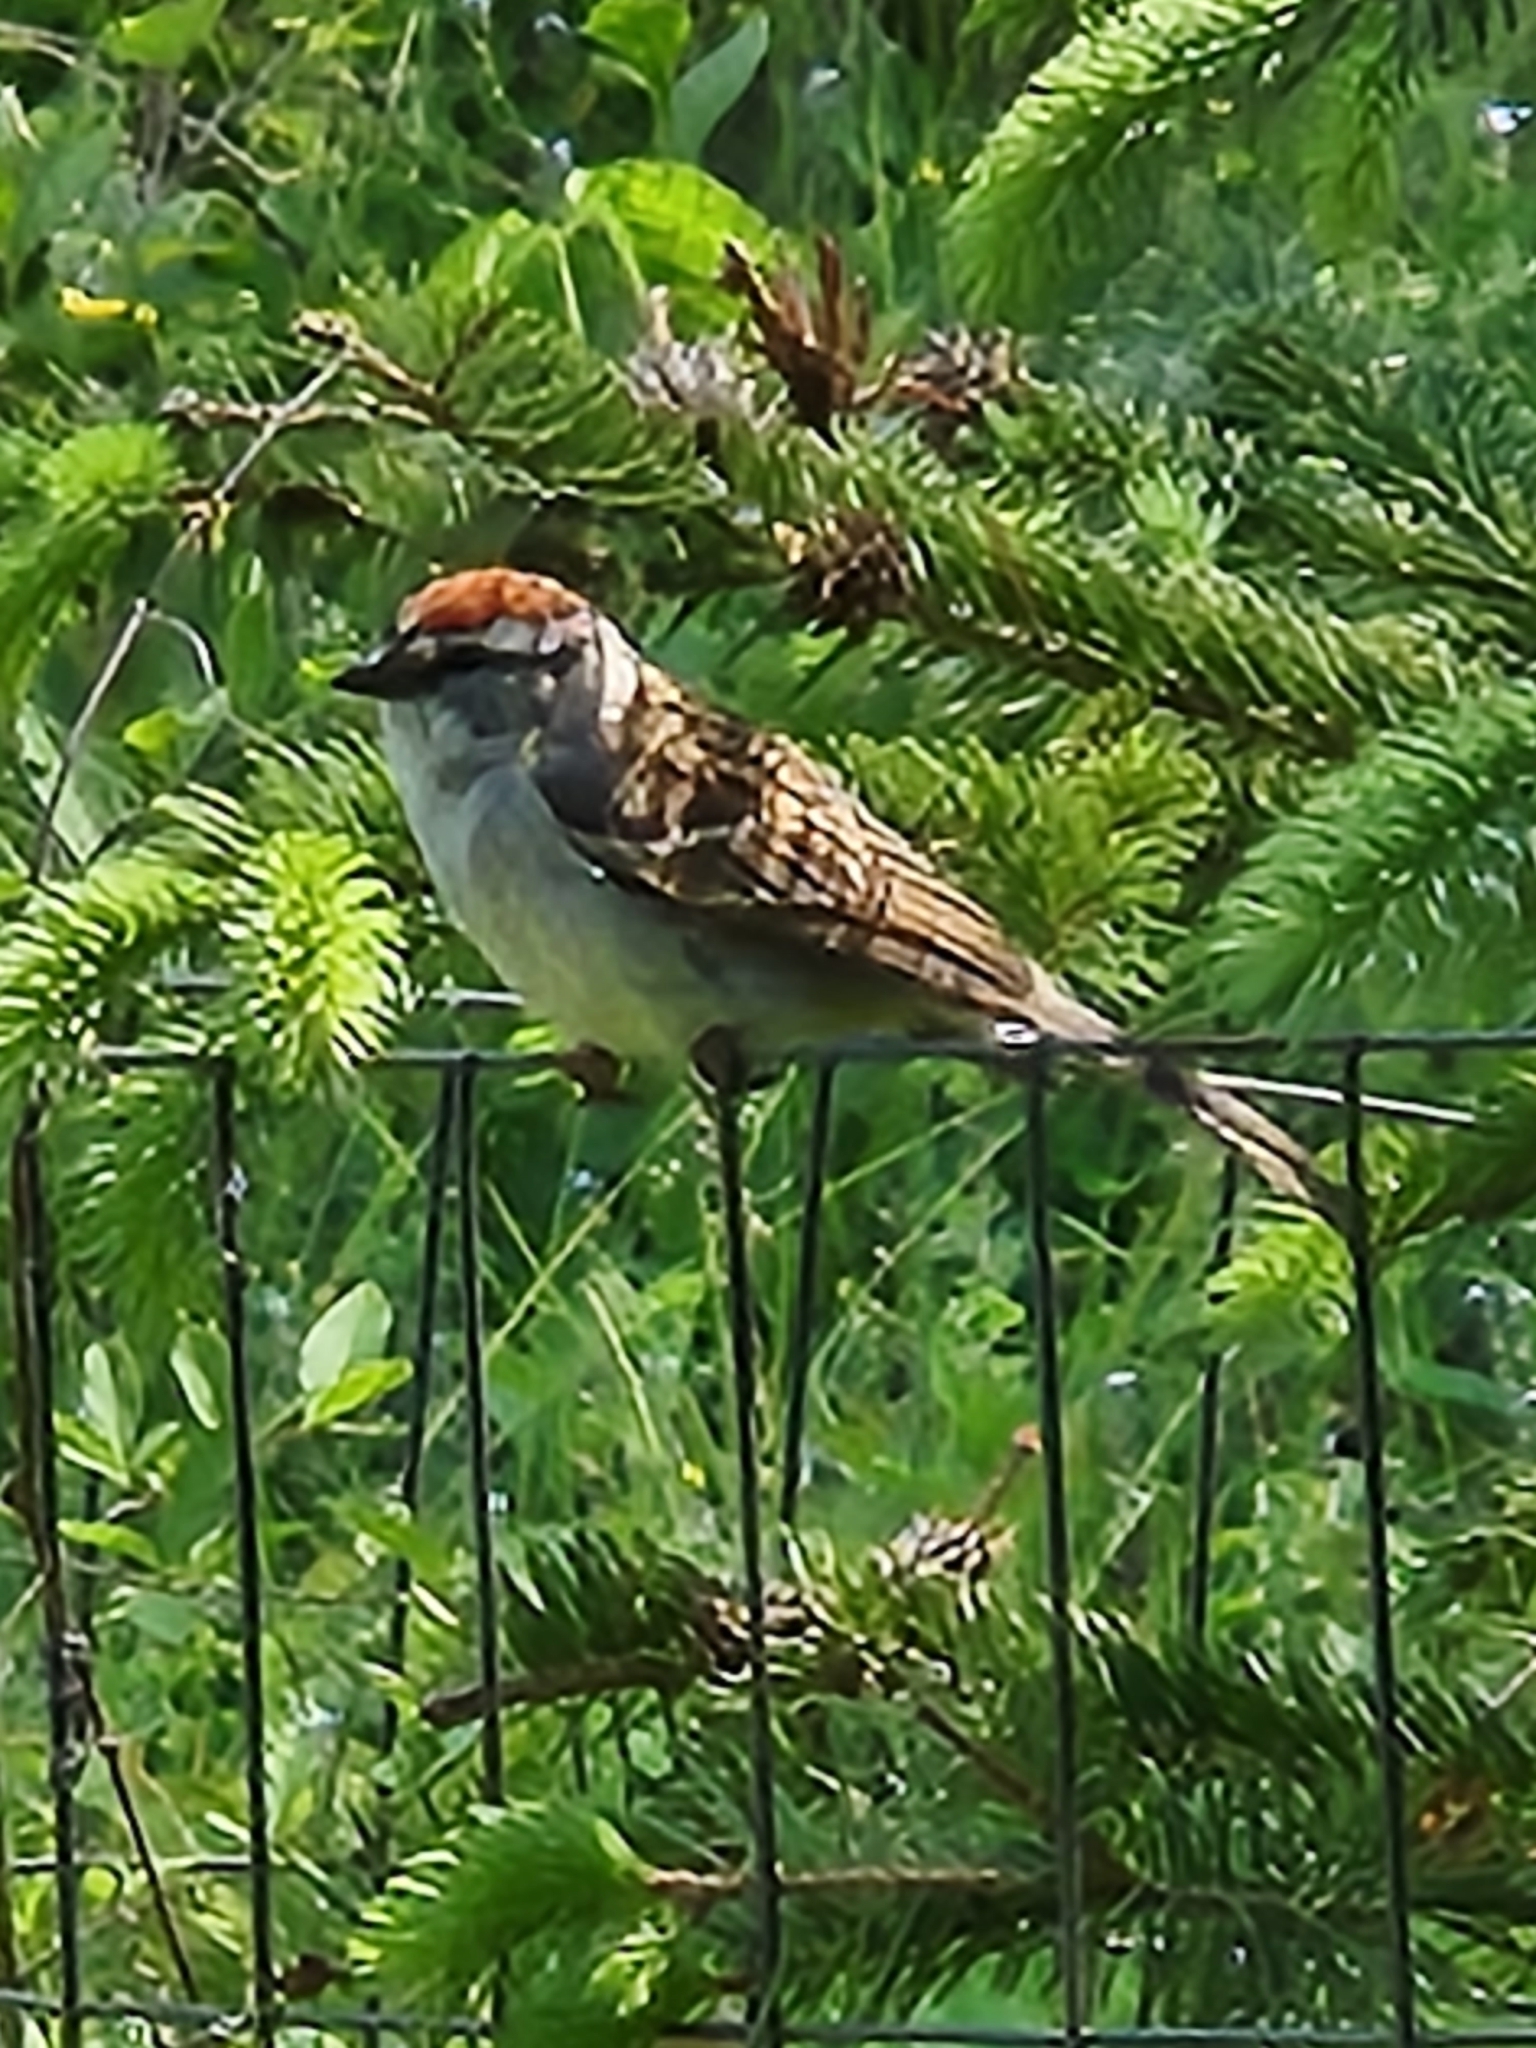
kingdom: Animalia
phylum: Chordata
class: Aves
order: Passeriformes
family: Passerellidae
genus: Spizella
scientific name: Spizella passerina
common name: Chipping sparrow
